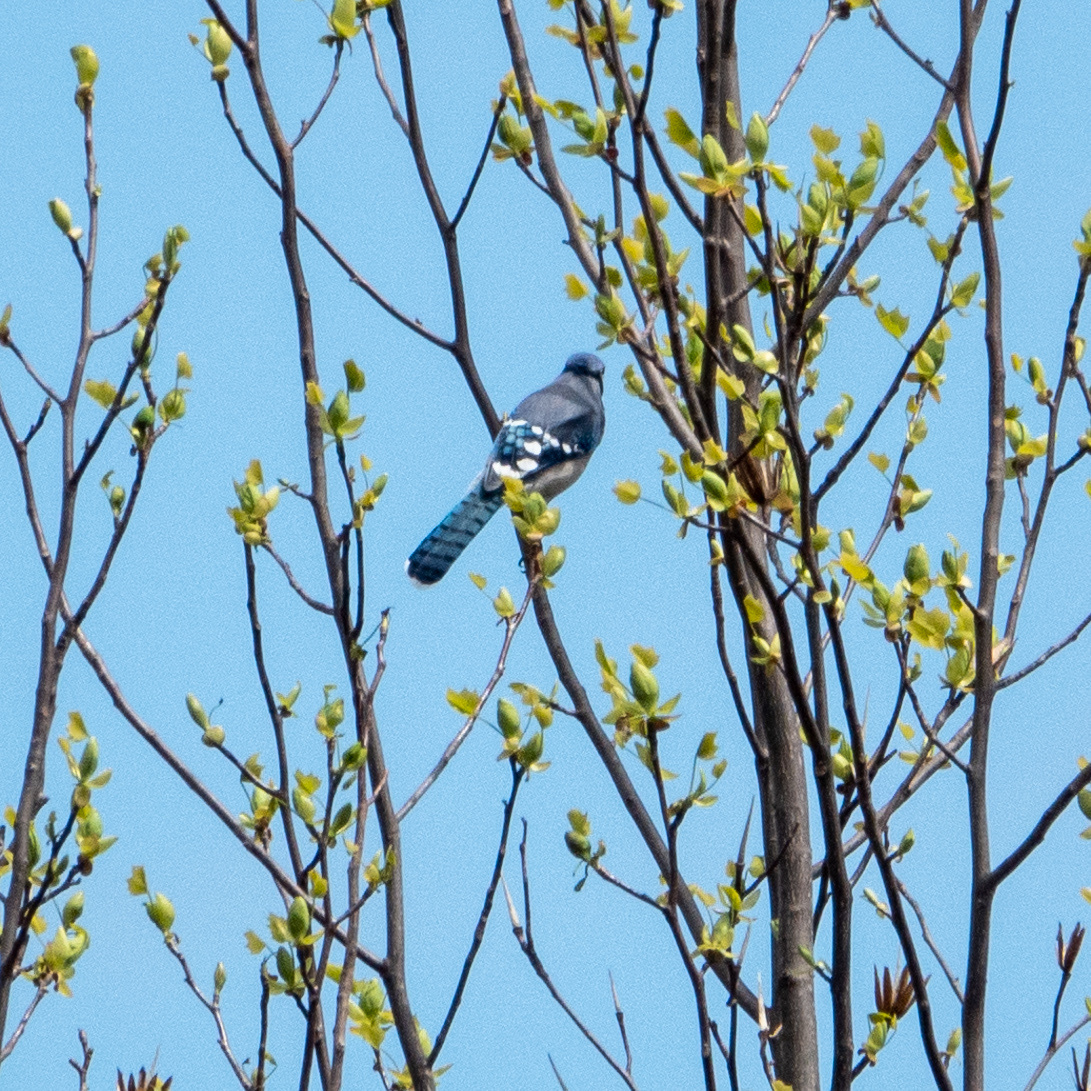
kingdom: Animalia
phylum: Chordata
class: Aves
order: Passeriformes
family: Corvidae
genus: Cyanocitta
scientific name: Cyanocitta cristata
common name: Blue jay
